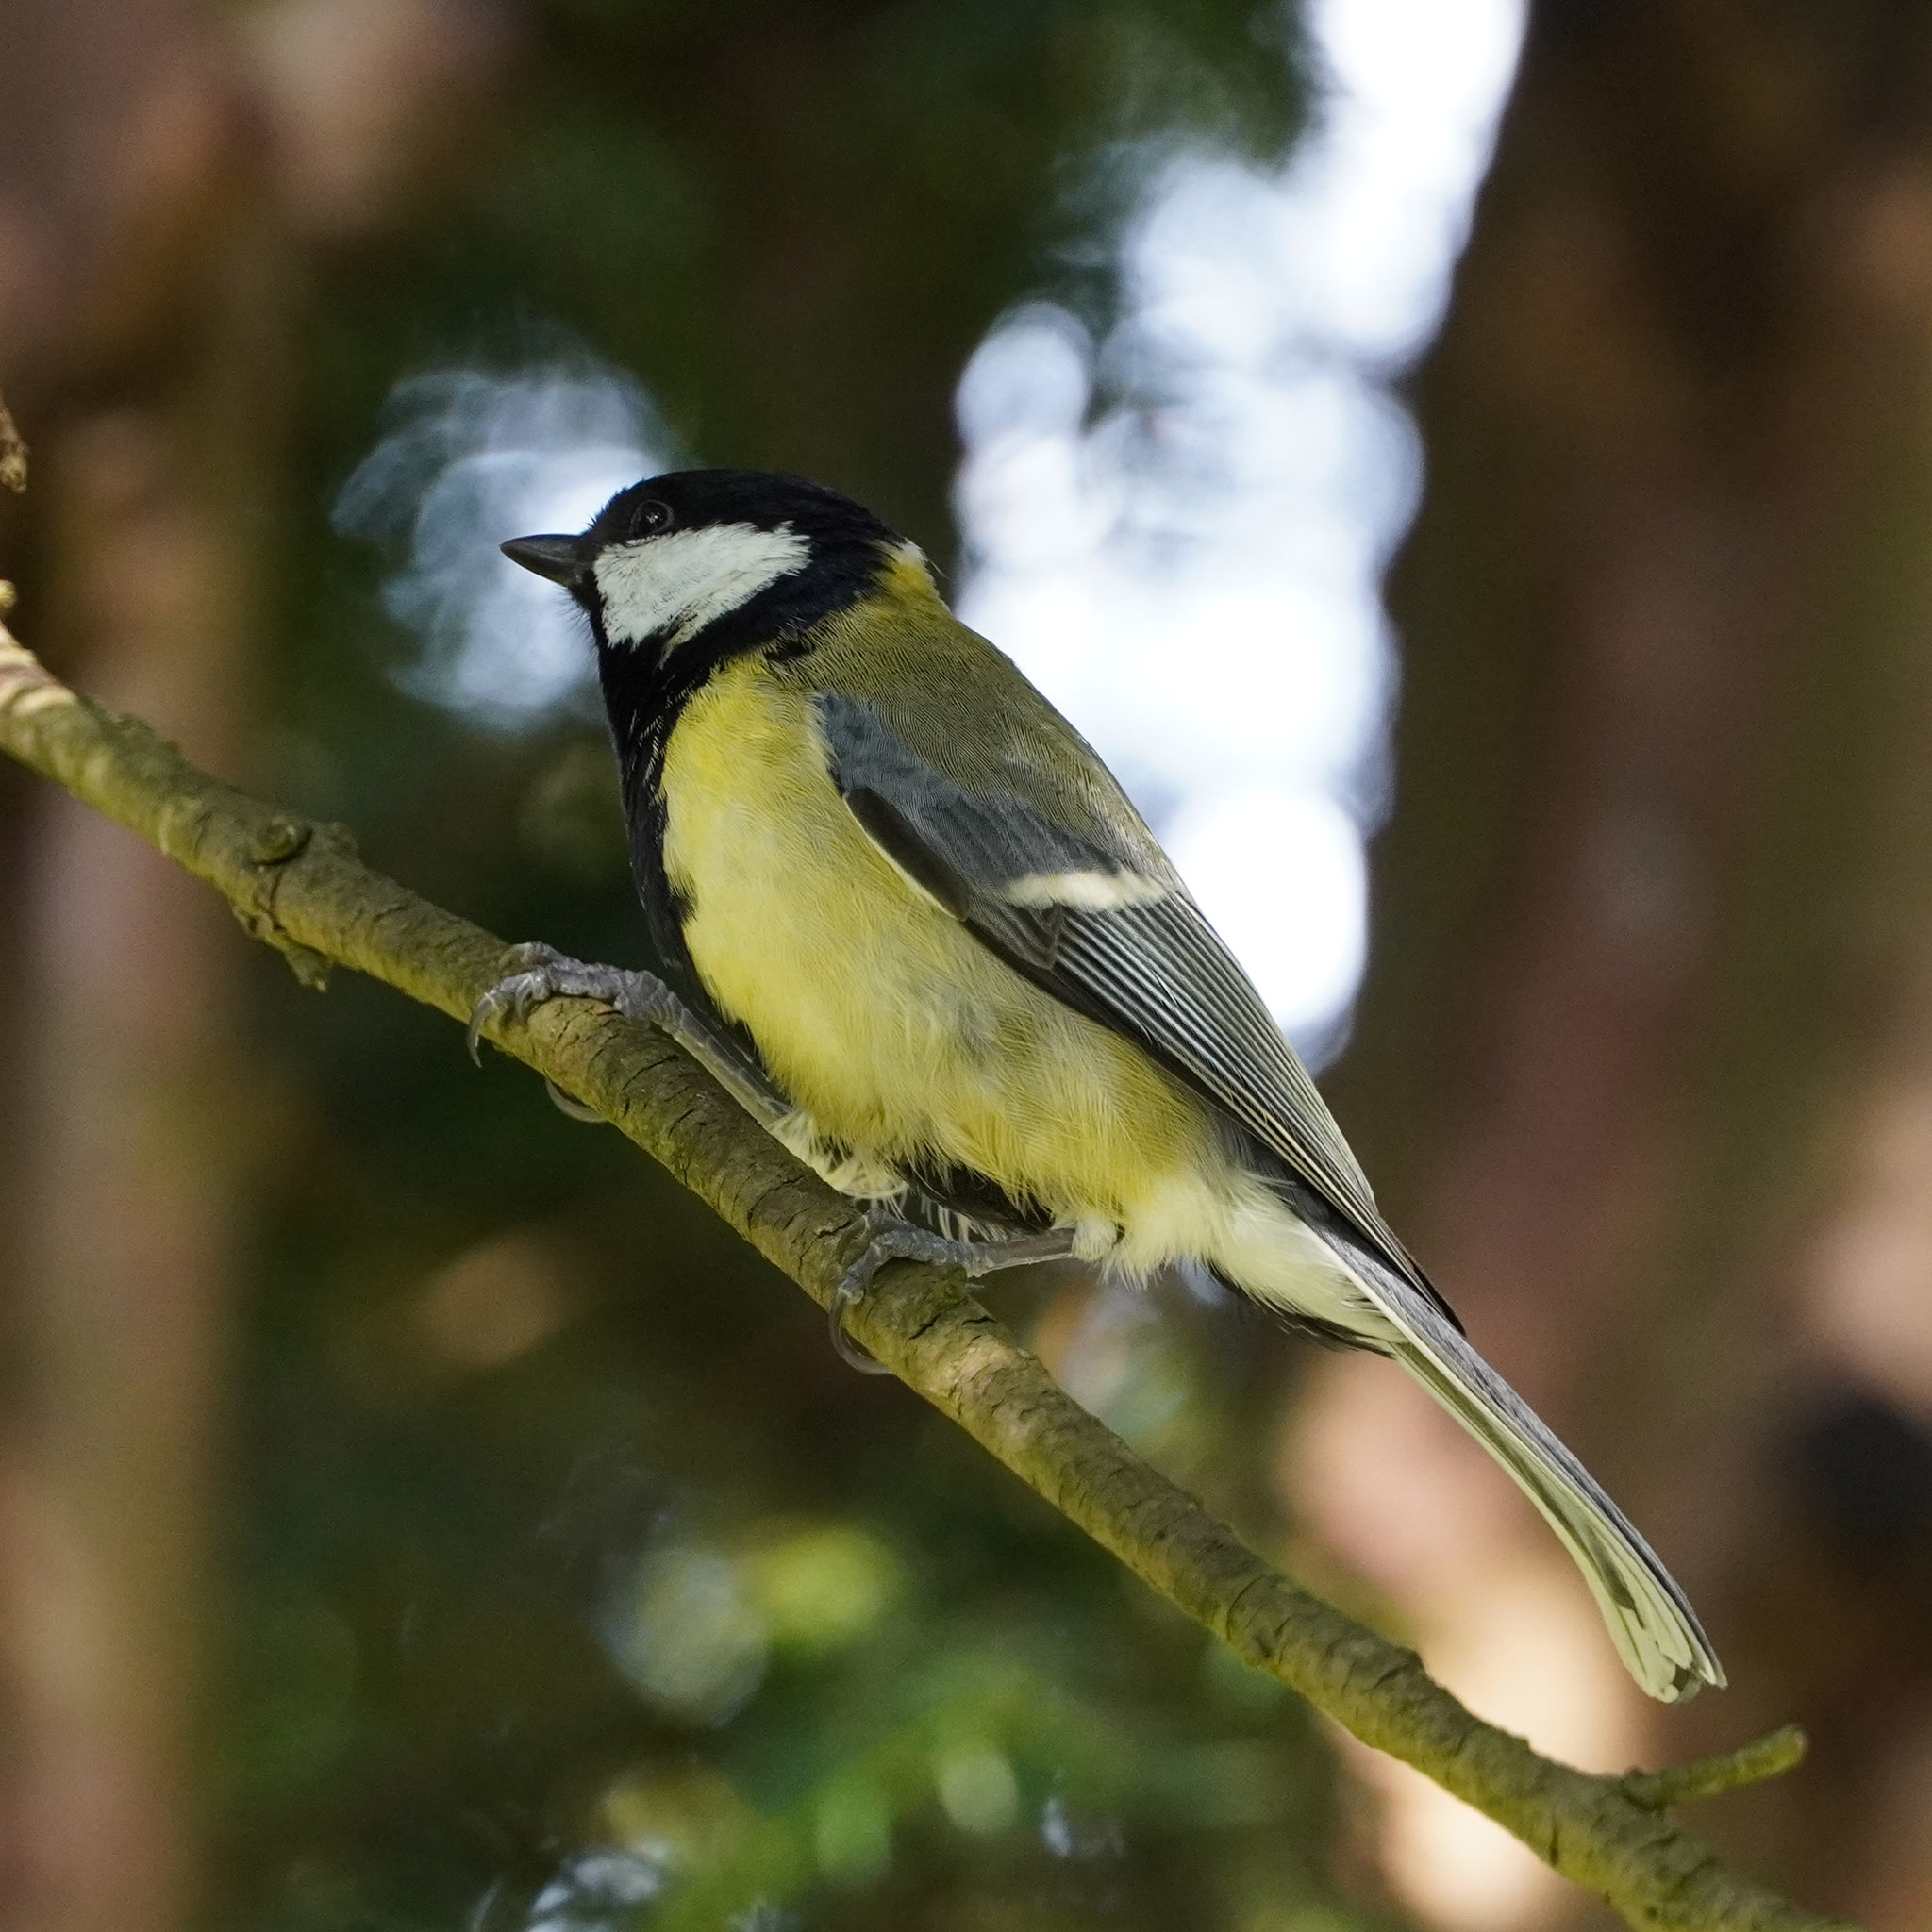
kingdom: Animalia
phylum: Chordata
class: Aves
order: Passeriformes
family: Paridae
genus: Parus
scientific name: Parus major
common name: Great tit
